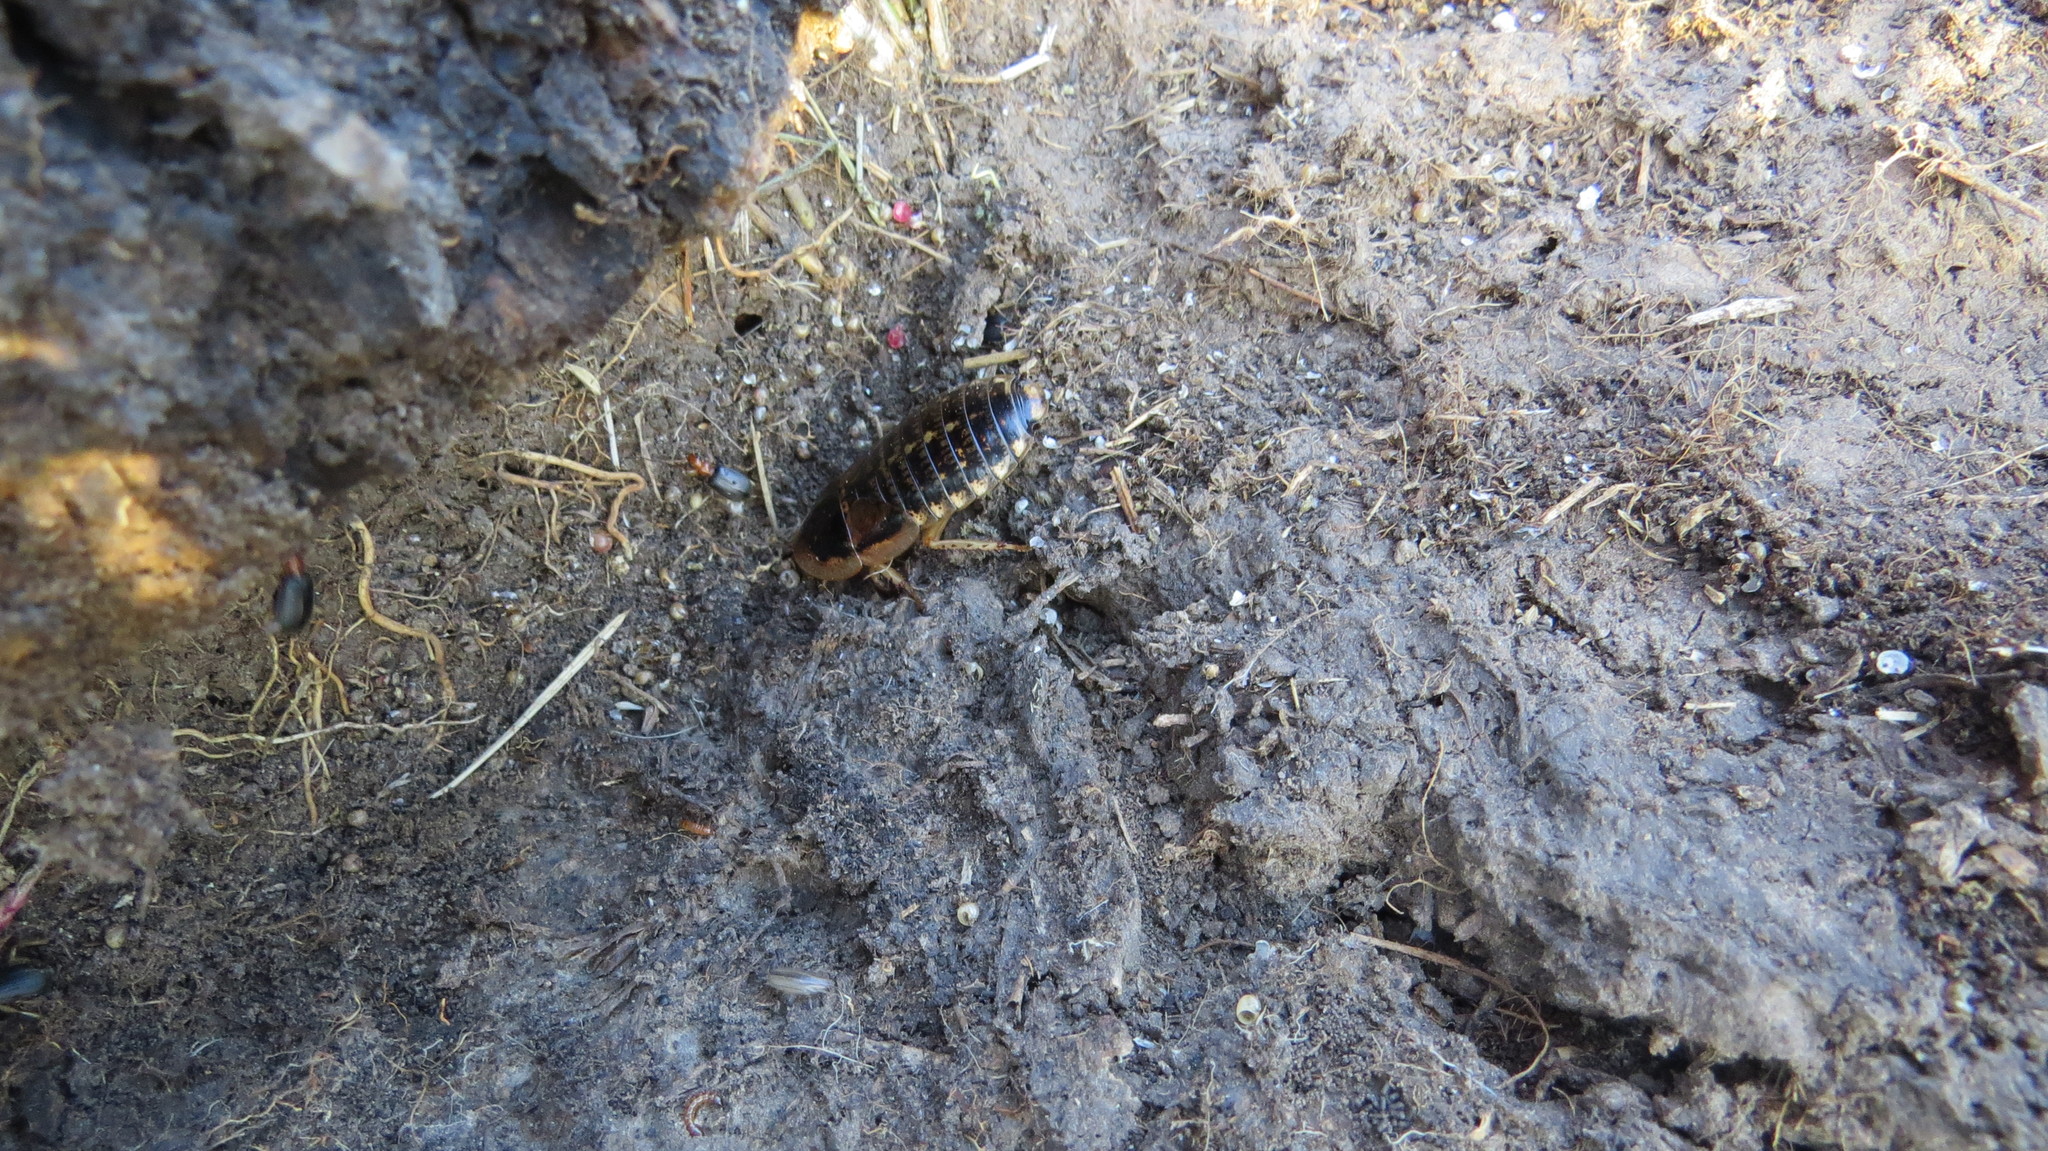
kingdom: Animalia
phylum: Arthropoda
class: Insecta
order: Blattodea
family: Blaberidae
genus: Blaptica
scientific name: Blaptica dubia
